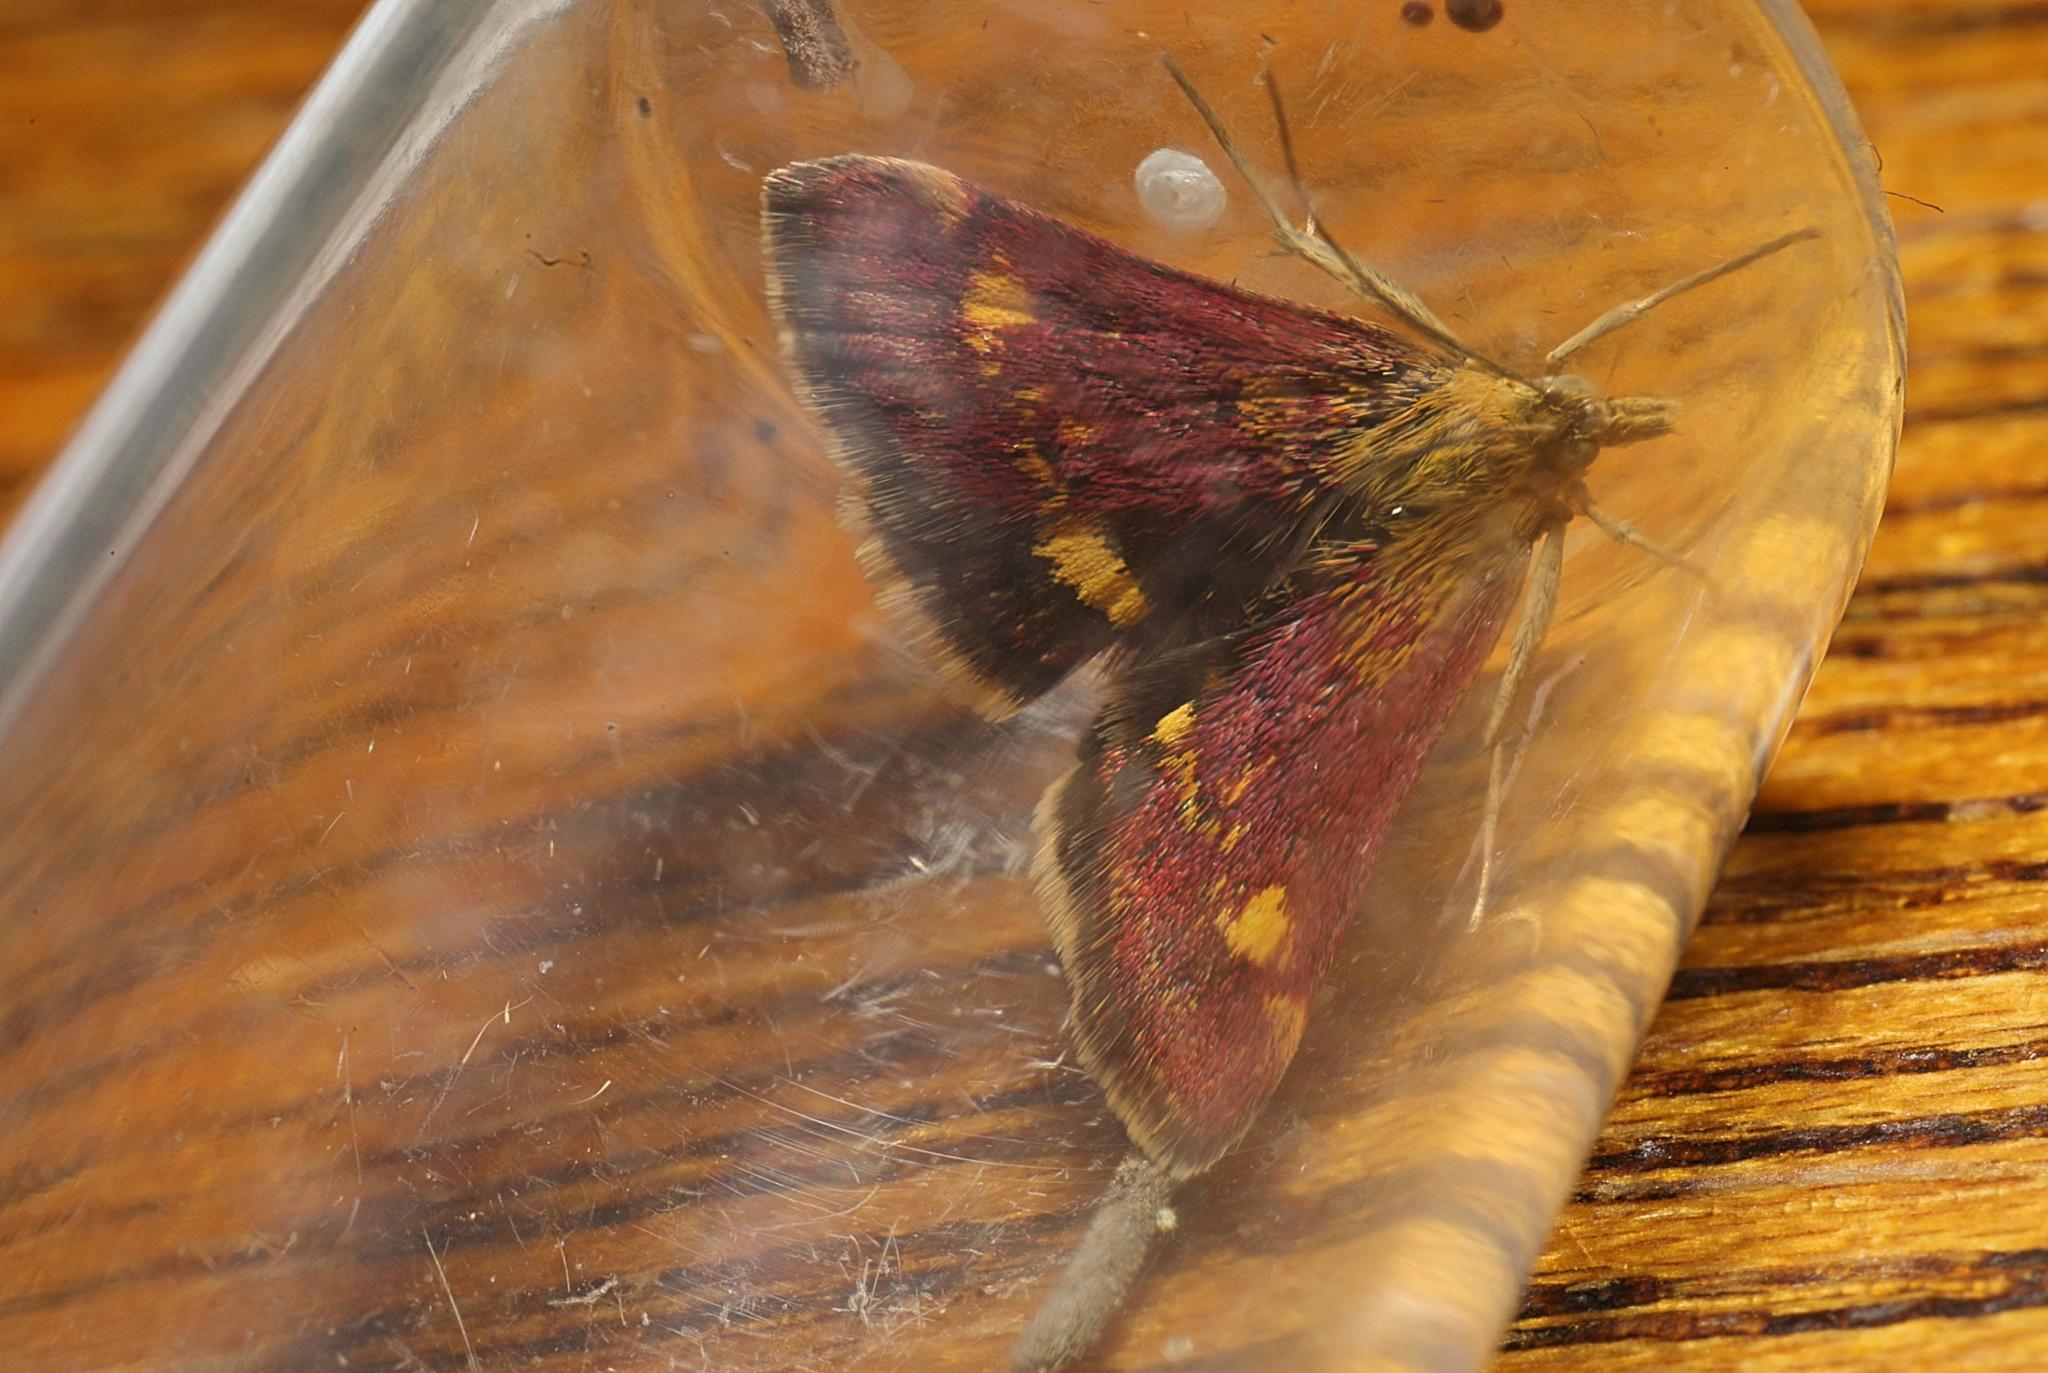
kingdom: Animalia
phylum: Arthropoda
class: Insecta
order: Lepidoptera
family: Crambidae
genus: Pyrausta
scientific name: Pyrausta aurata
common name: Small purple & gold
